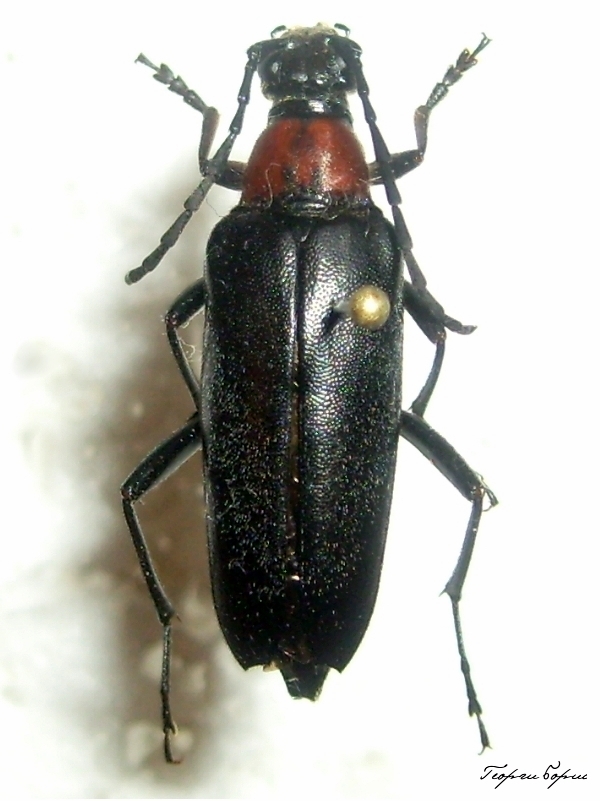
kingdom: Animalia
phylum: Arthropoda
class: Insecta
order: Coleoptera
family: Cerambycidae
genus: Leptura
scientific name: Leptura thoracica
